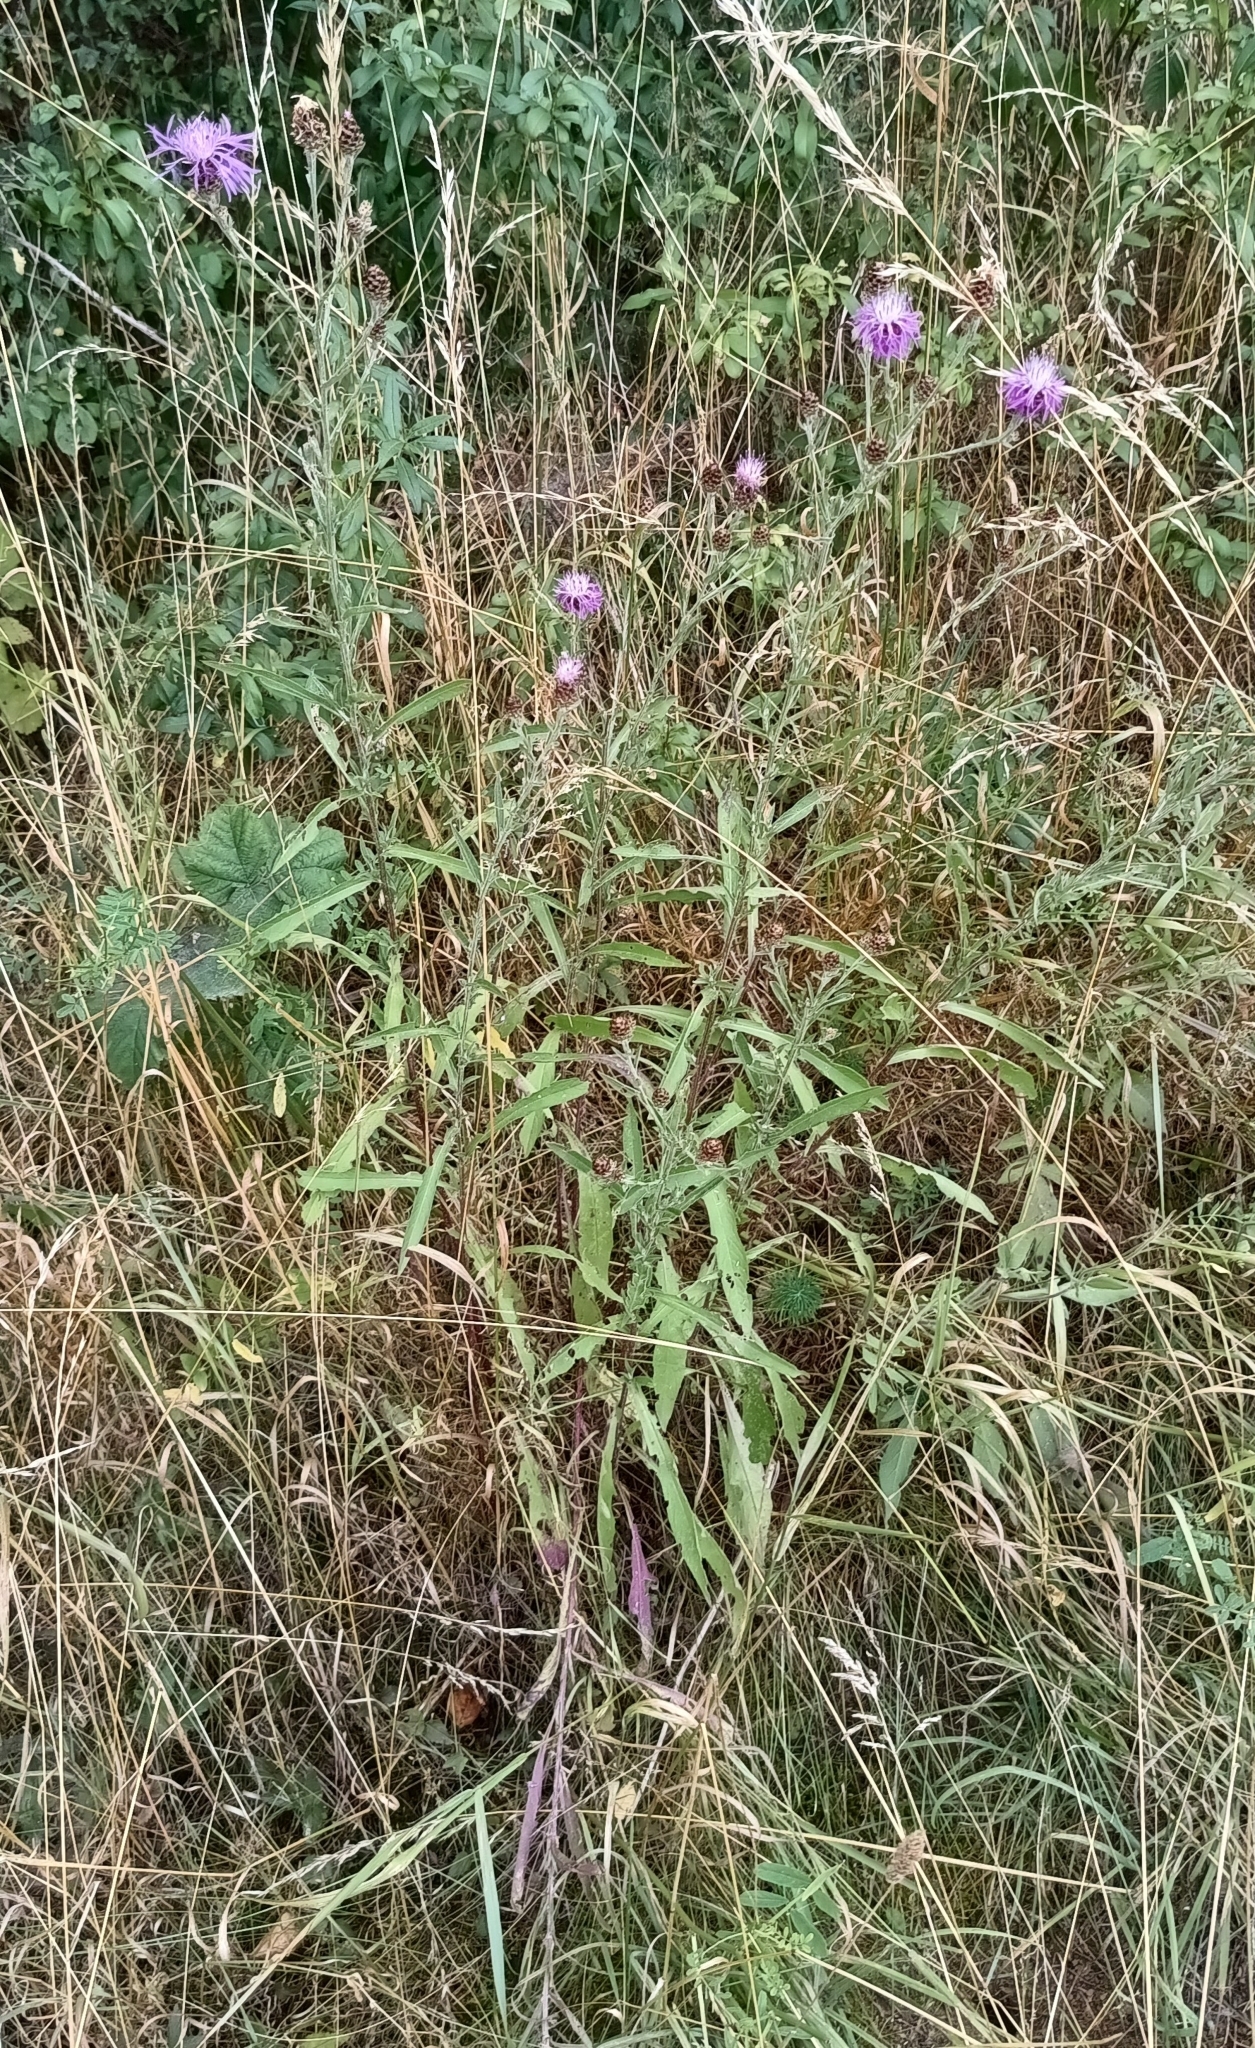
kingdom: Plantae
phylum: Tracheophyta
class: Magnoliopsida
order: Asterales
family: Asteraceae
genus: Centaurea
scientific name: Centaurea jacea
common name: Brown knapweed
